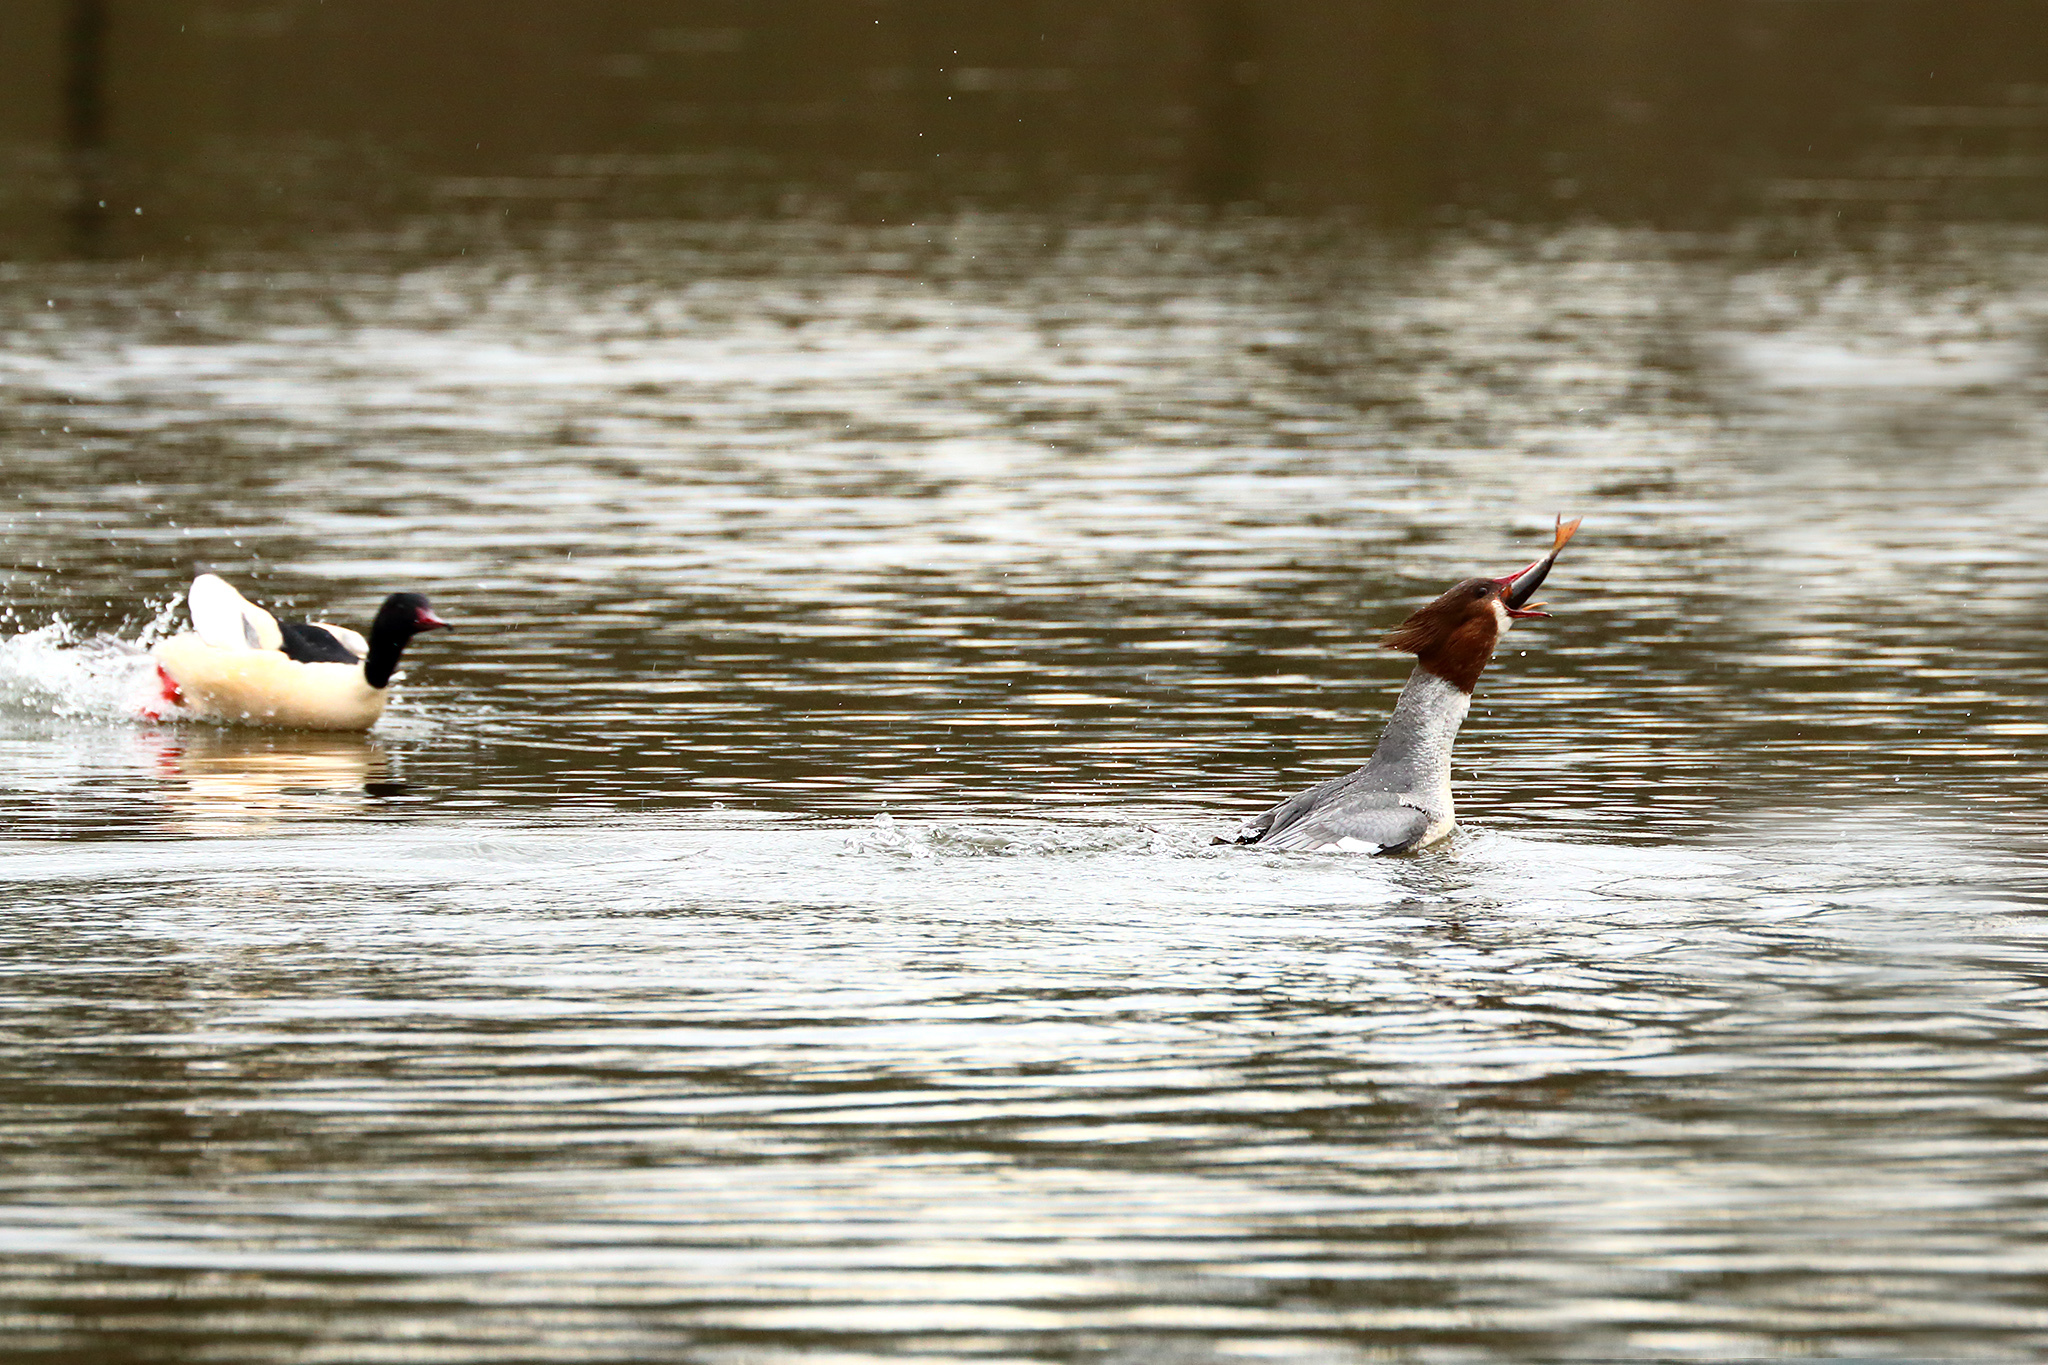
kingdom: Animalia
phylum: Chordata
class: Aves
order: Anseriformes
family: Anatidae
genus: Mergus
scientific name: Mergus merganser
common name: Common merganser
